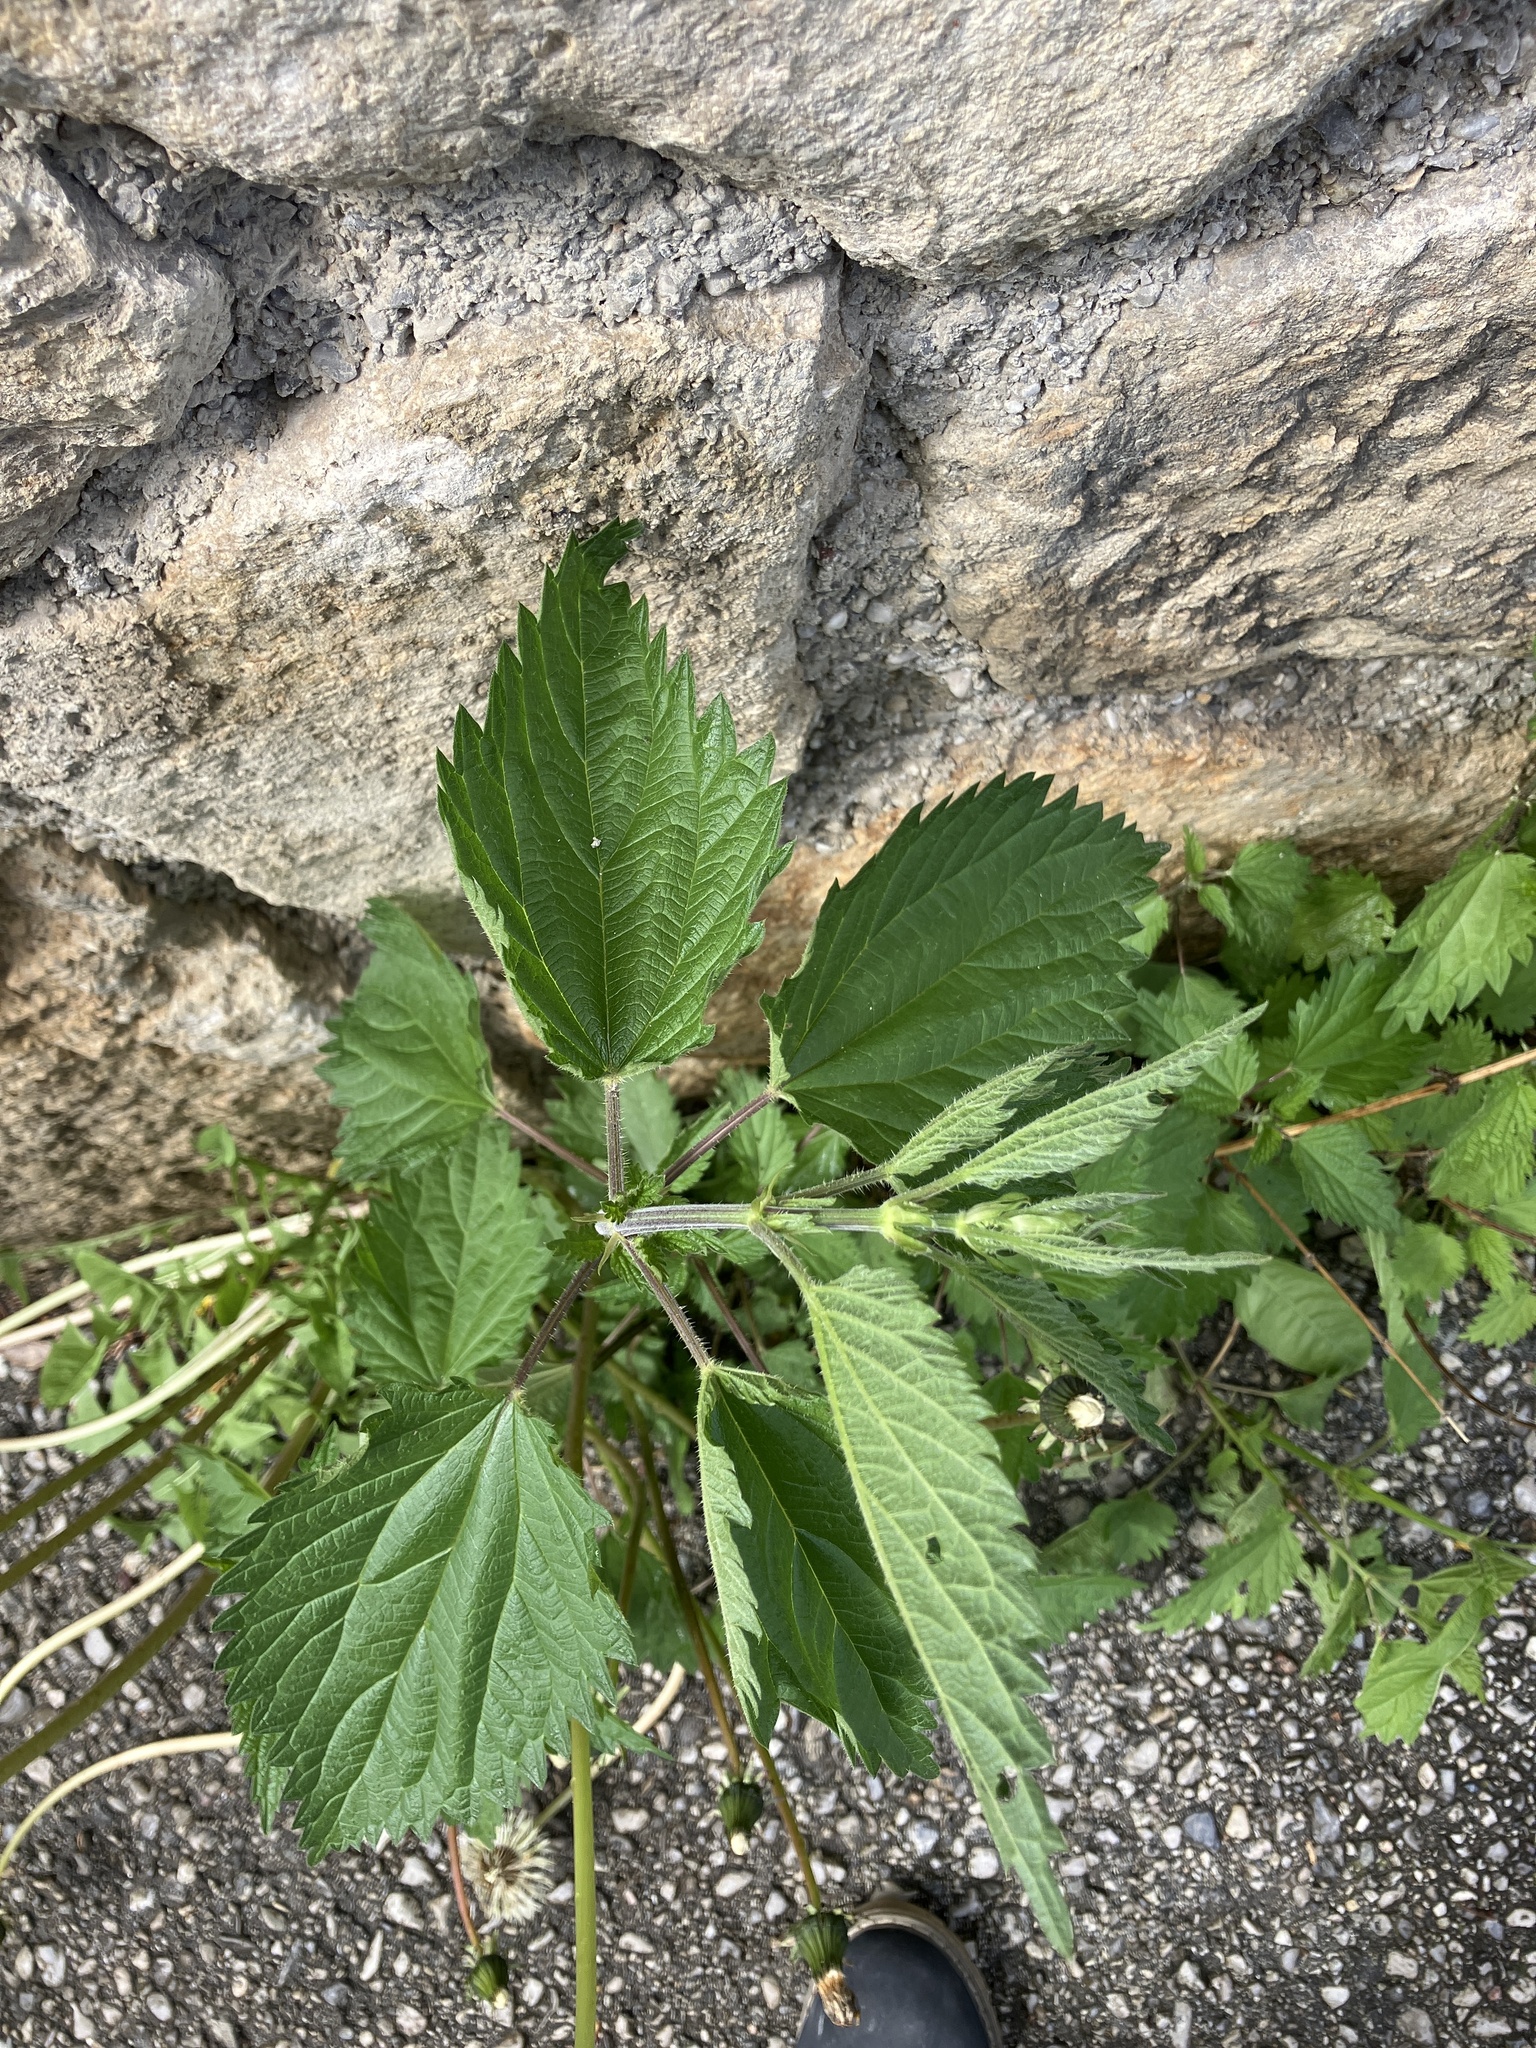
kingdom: Plantae
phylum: Tracheophyta
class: Magnoliopsida
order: Rosales
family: Urticaceae
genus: Urtica
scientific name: Urtica dioica
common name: Common nettle
